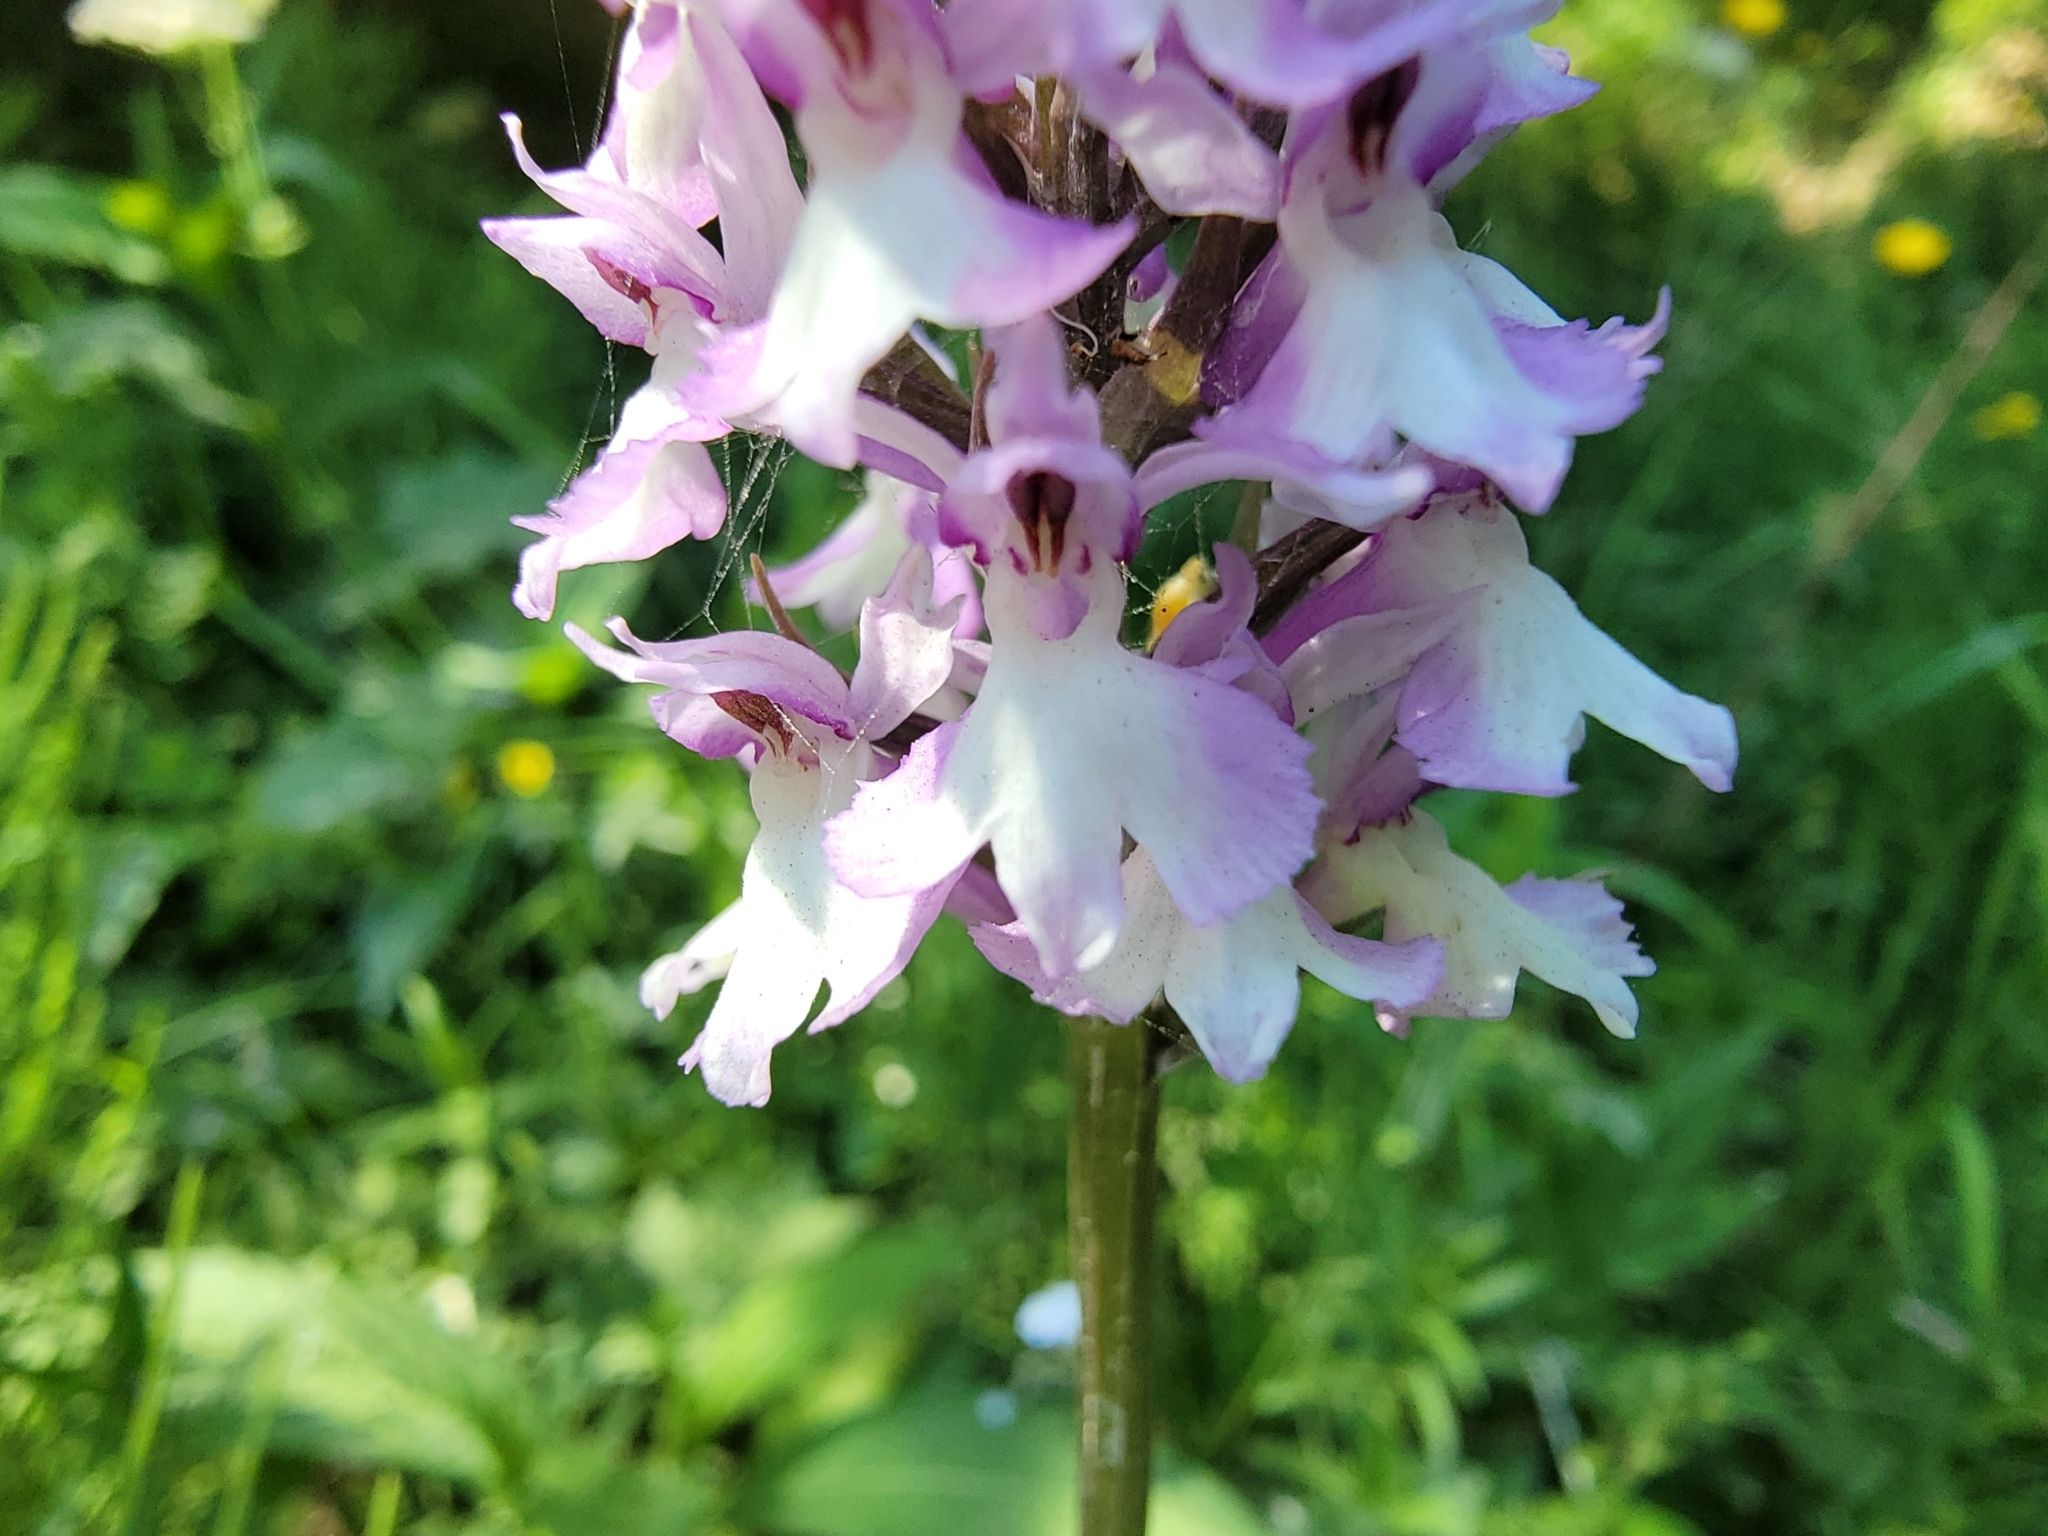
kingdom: Plantae
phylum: Tracheophyta
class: Liliopsida
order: Asparagales
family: Orchidaceae
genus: Dactylorhiza
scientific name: Dactylorhiza maculata
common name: Heath spotted-orchid
